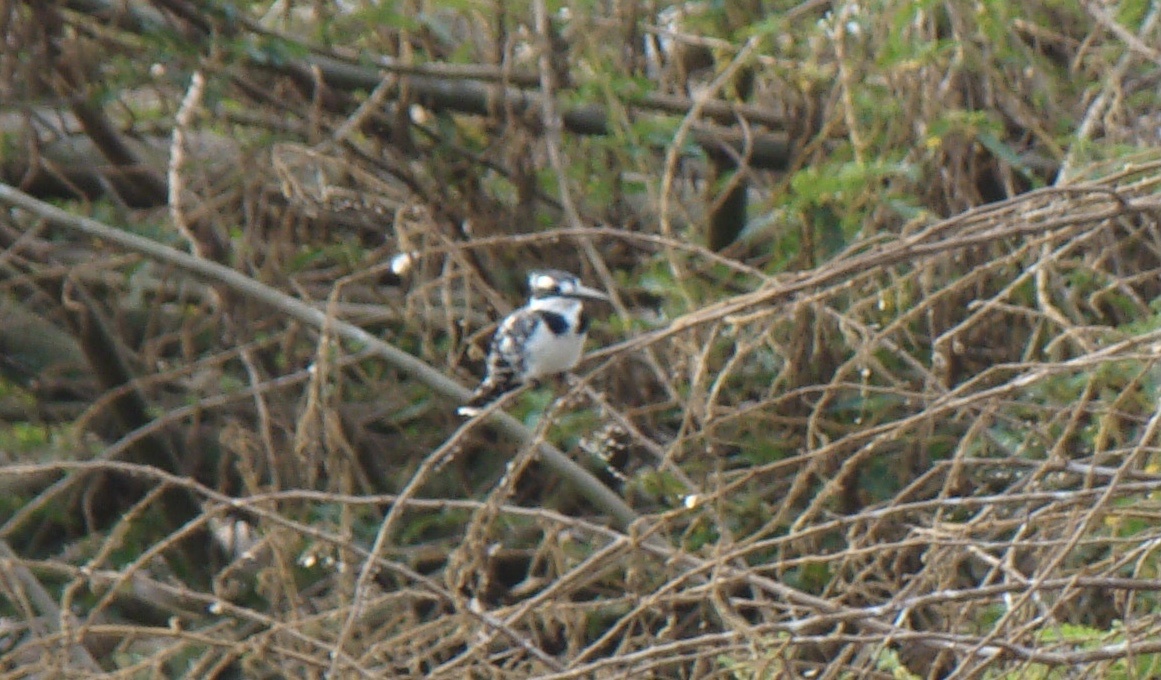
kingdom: Animalia
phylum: Chordata
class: Aves
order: Coraciiformes
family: Alcedinidae
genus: Ceryle
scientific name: Ceryle rudis
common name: Pied kingfisher
